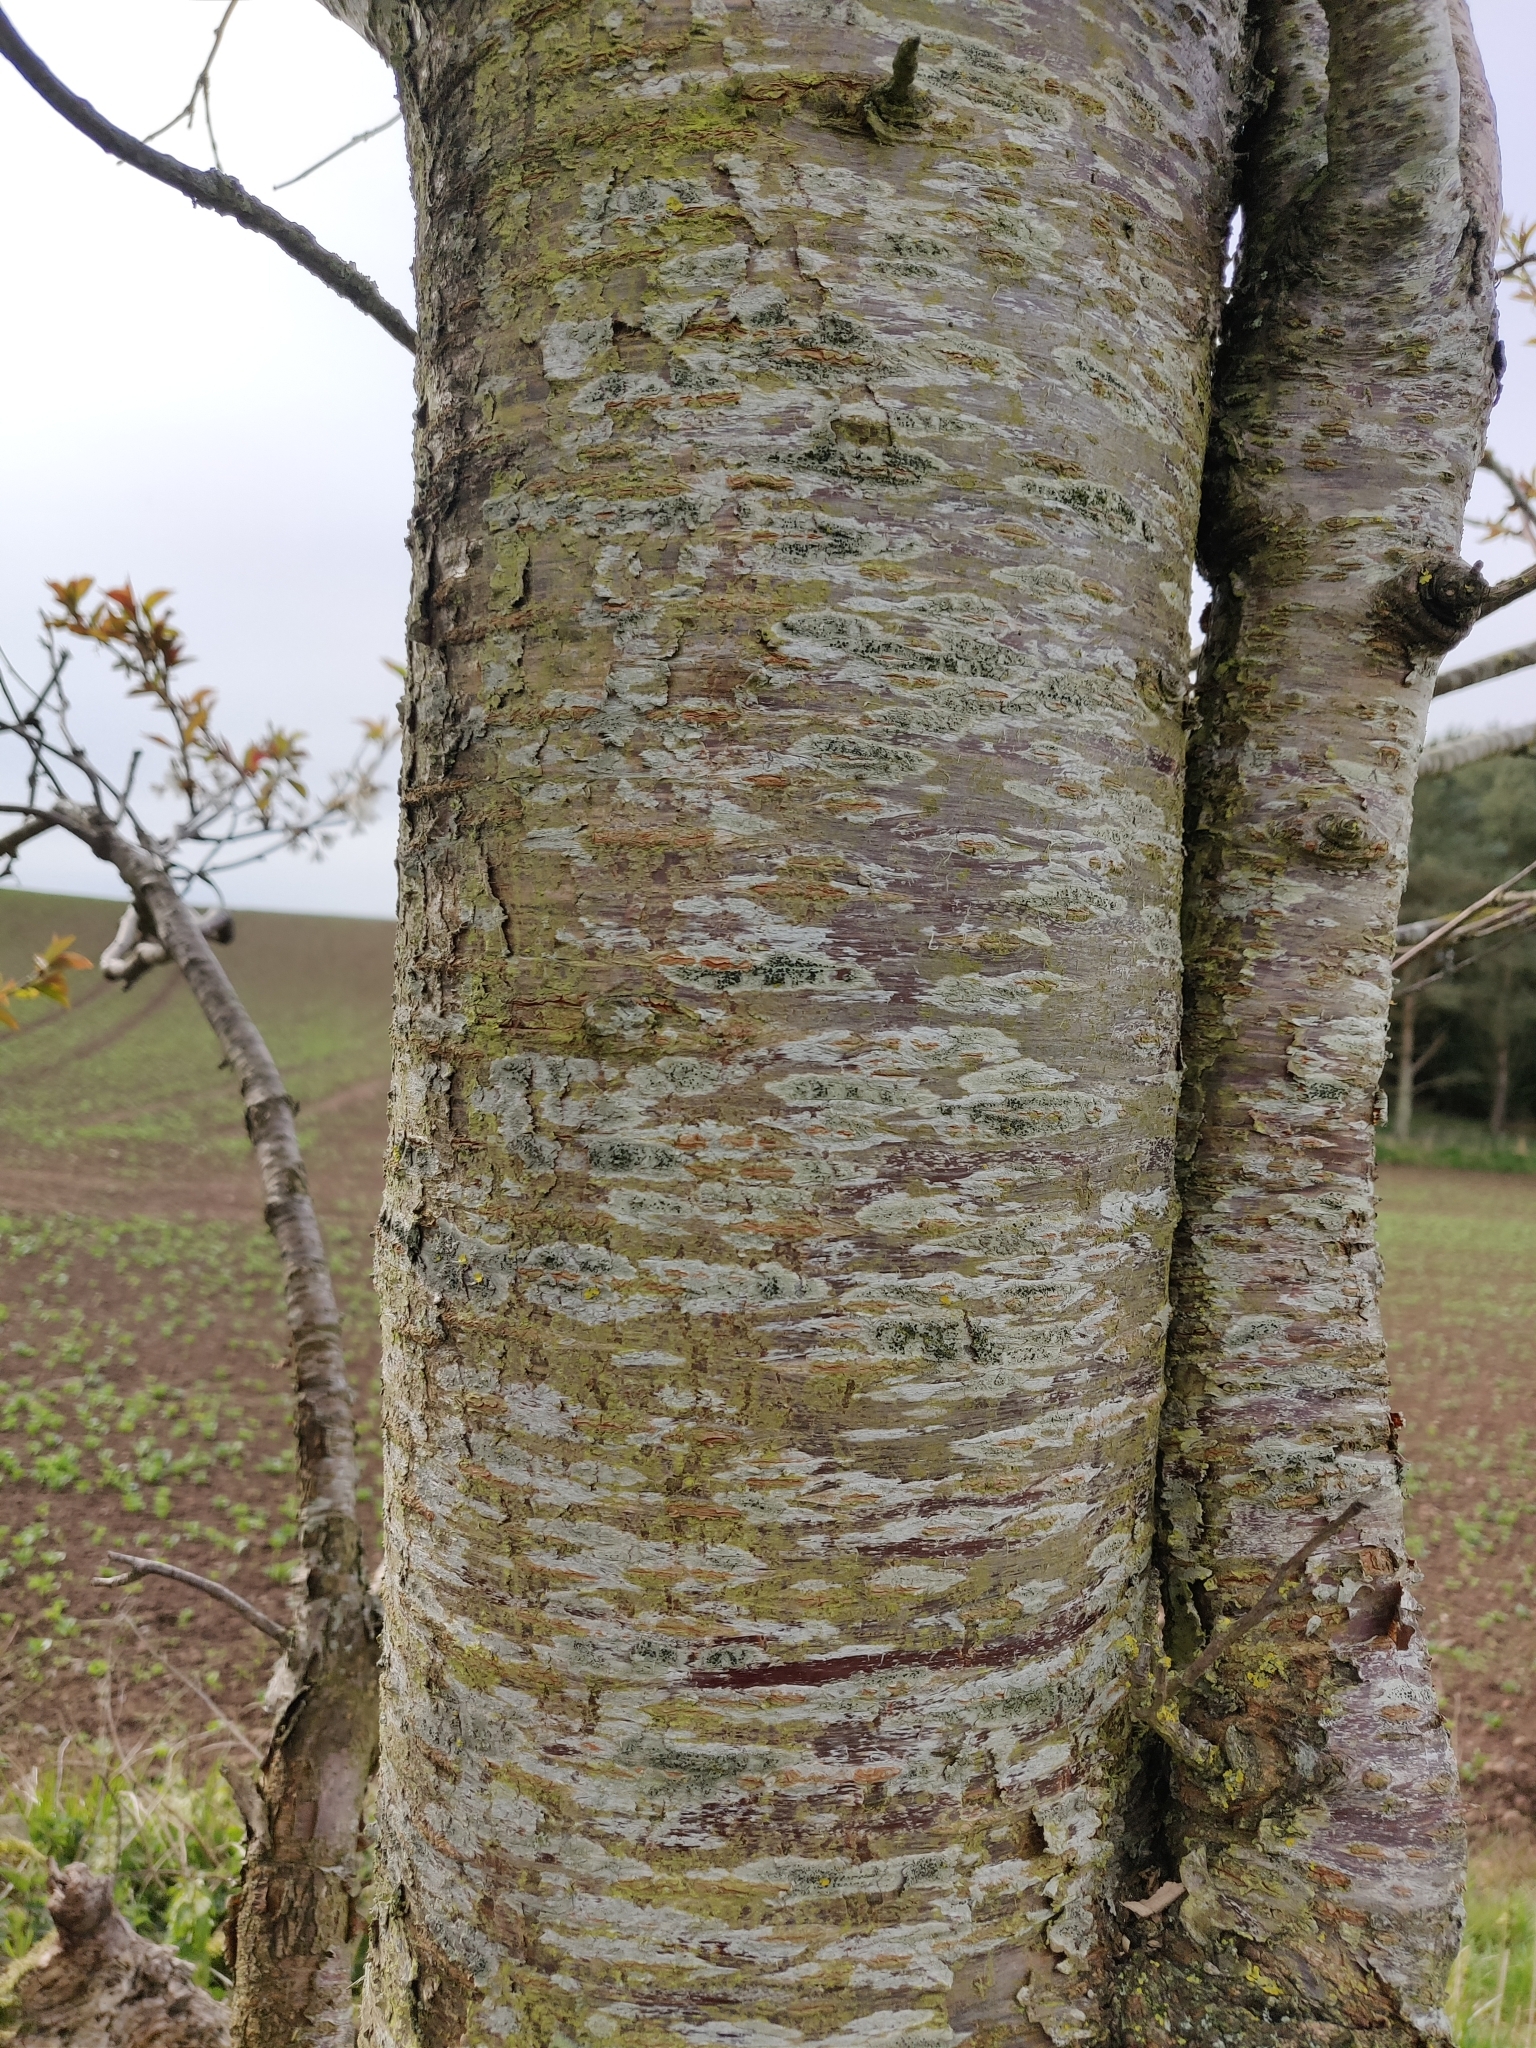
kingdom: Plantae
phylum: Tracheophyta
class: Magnoliopsida
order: Rosales
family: Rosaceae
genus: Prunus
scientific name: Prunus avium
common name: Sweet cherry
